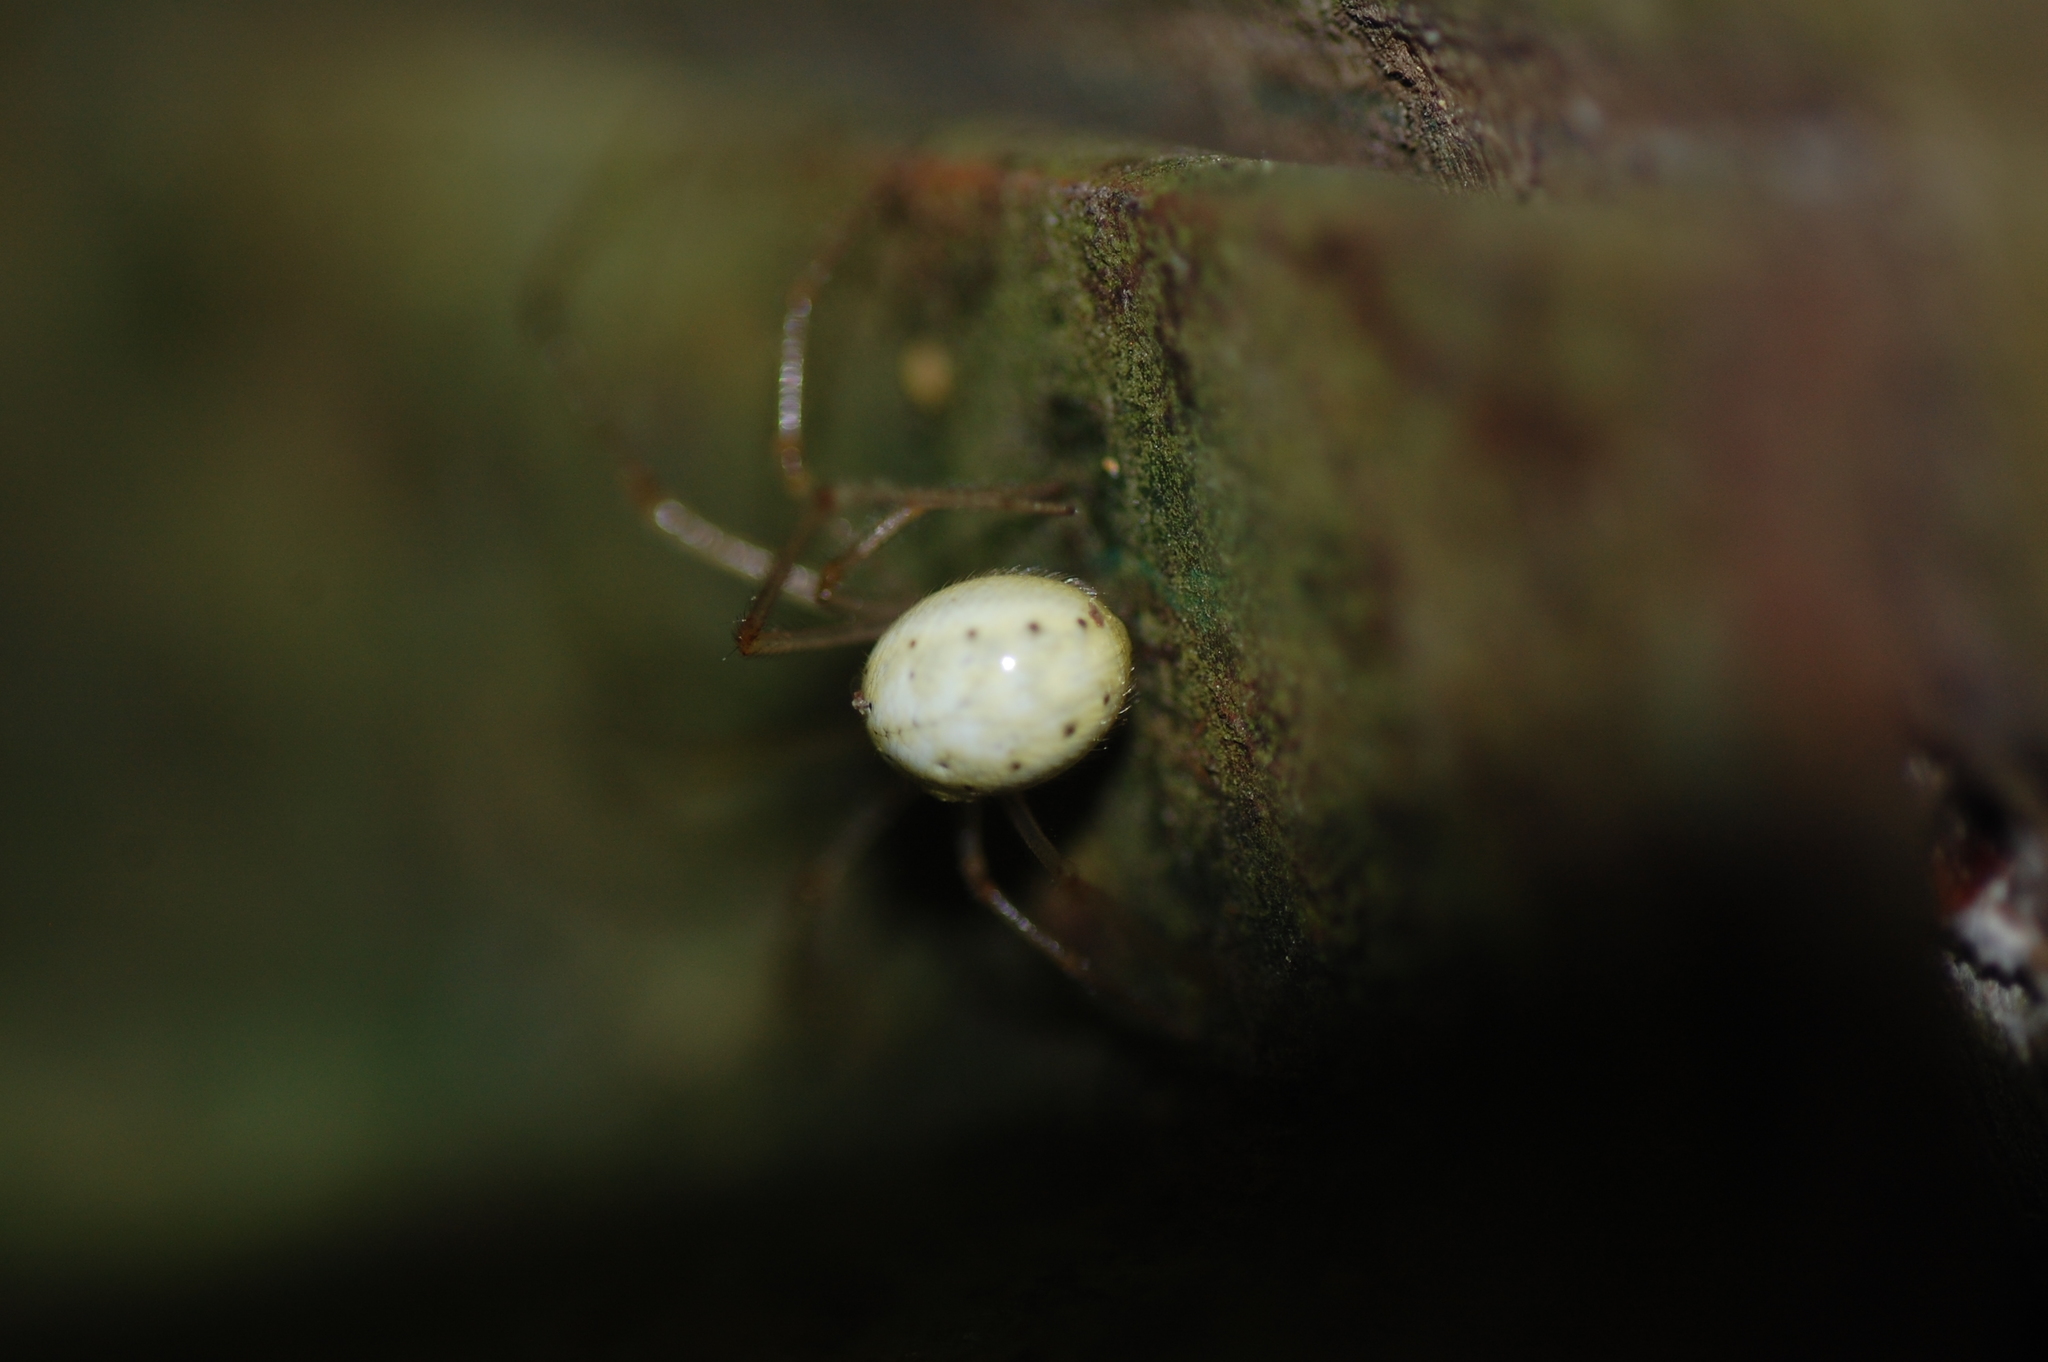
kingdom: Animalia
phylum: Arthropoda
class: Arachnida
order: Araneae
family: Theridiidae
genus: Enoplognatha
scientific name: Enoplognatha ovata
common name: Common candy-striped spider
